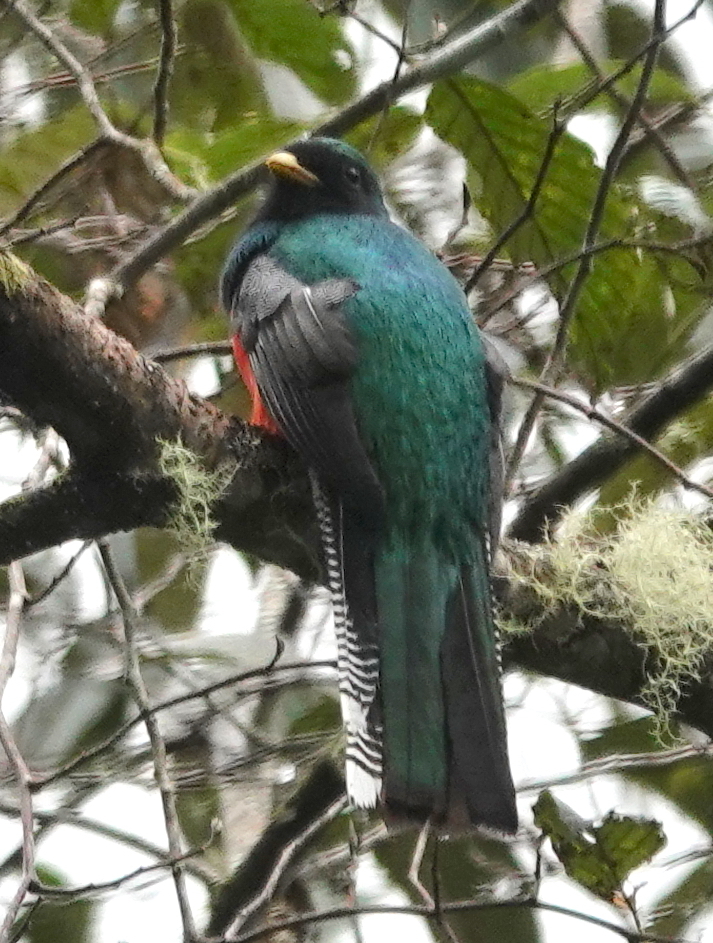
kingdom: Animalia
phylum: Chordata
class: Aves
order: Trogoniformes
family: Trogonidae
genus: Trogon
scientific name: Trogon collaris
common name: Collared trogon
